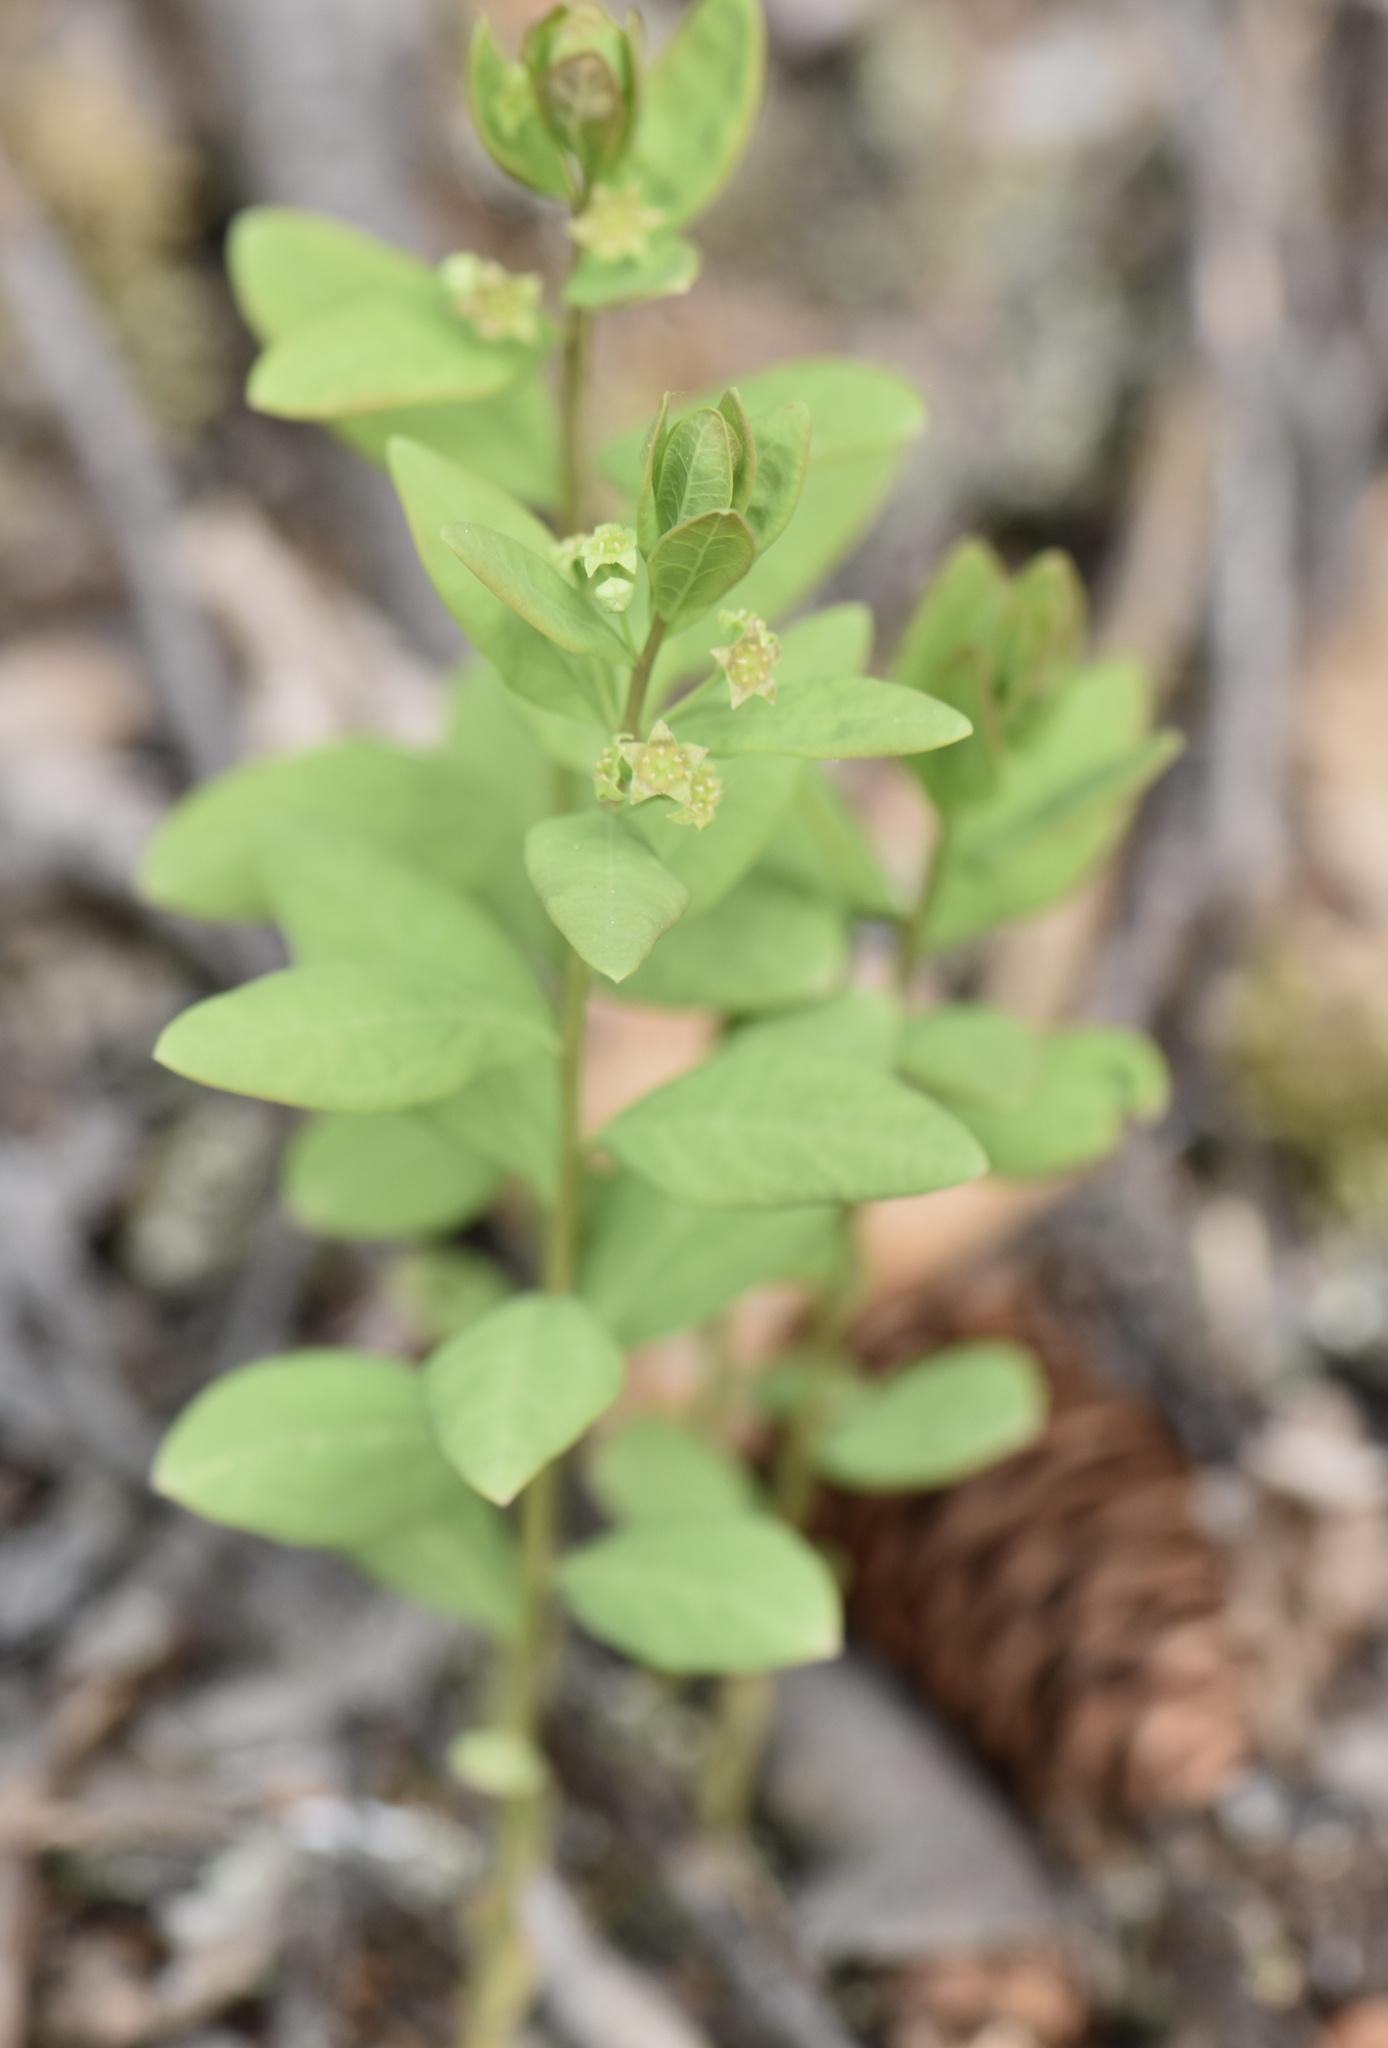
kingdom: Plantae
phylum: Tracheophyta
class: Magnoliopsida
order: Santalales
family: Comandraceae
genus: Geocaulon
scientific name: Geocaulon lividum
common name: Earthberry
